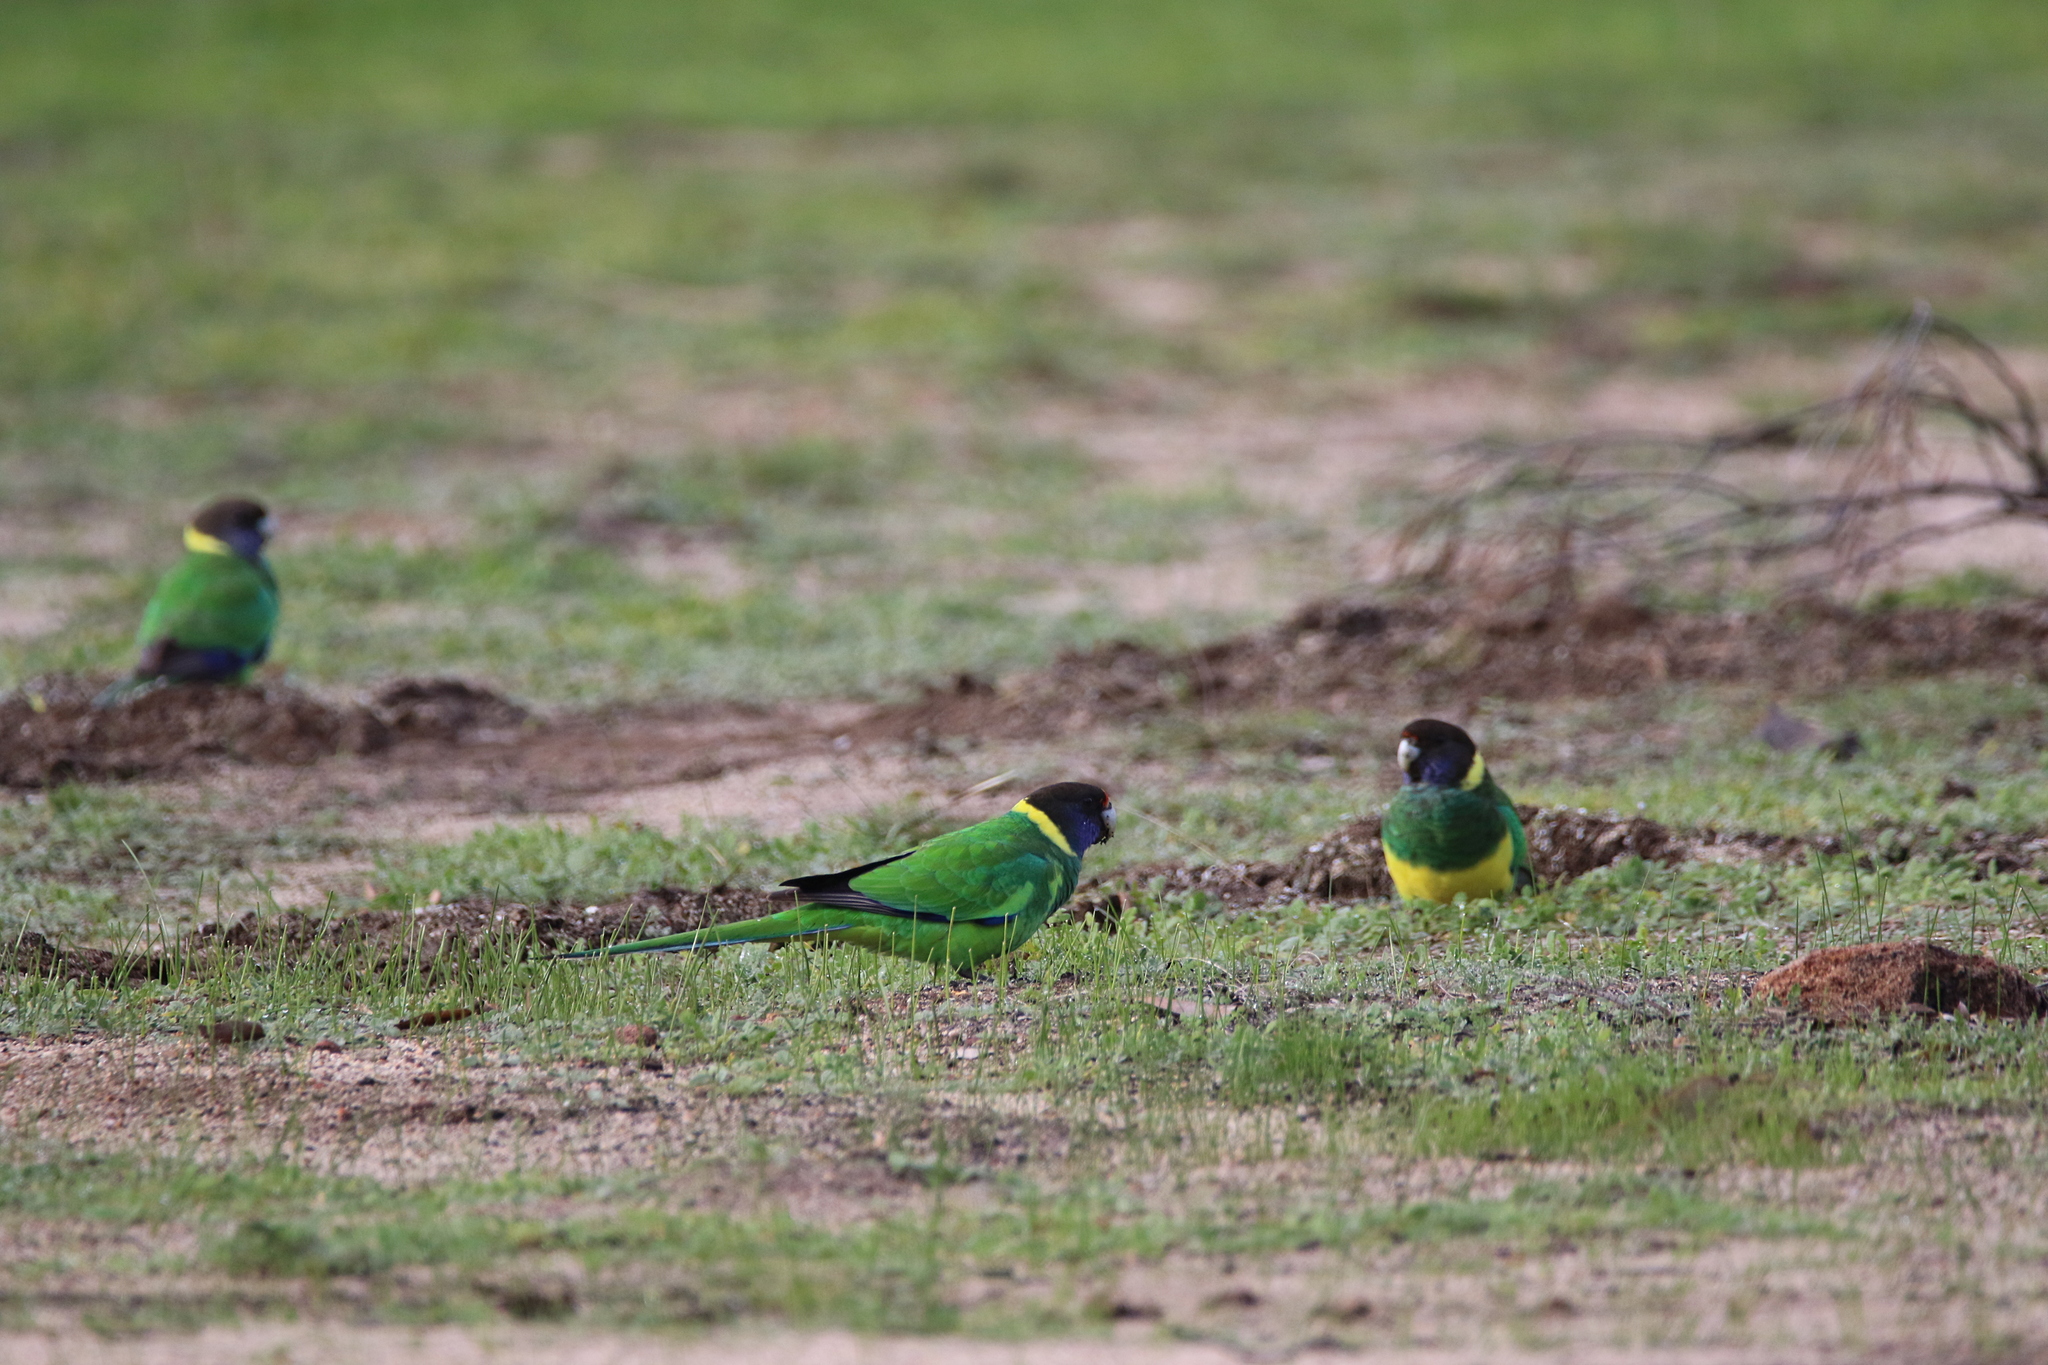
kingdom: Animalia
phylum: Chordata
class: Aves
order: Psittaciformes
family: Psittacidae
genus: Barnardius
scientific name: Barnardius zonarius
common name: Australian ringneck
